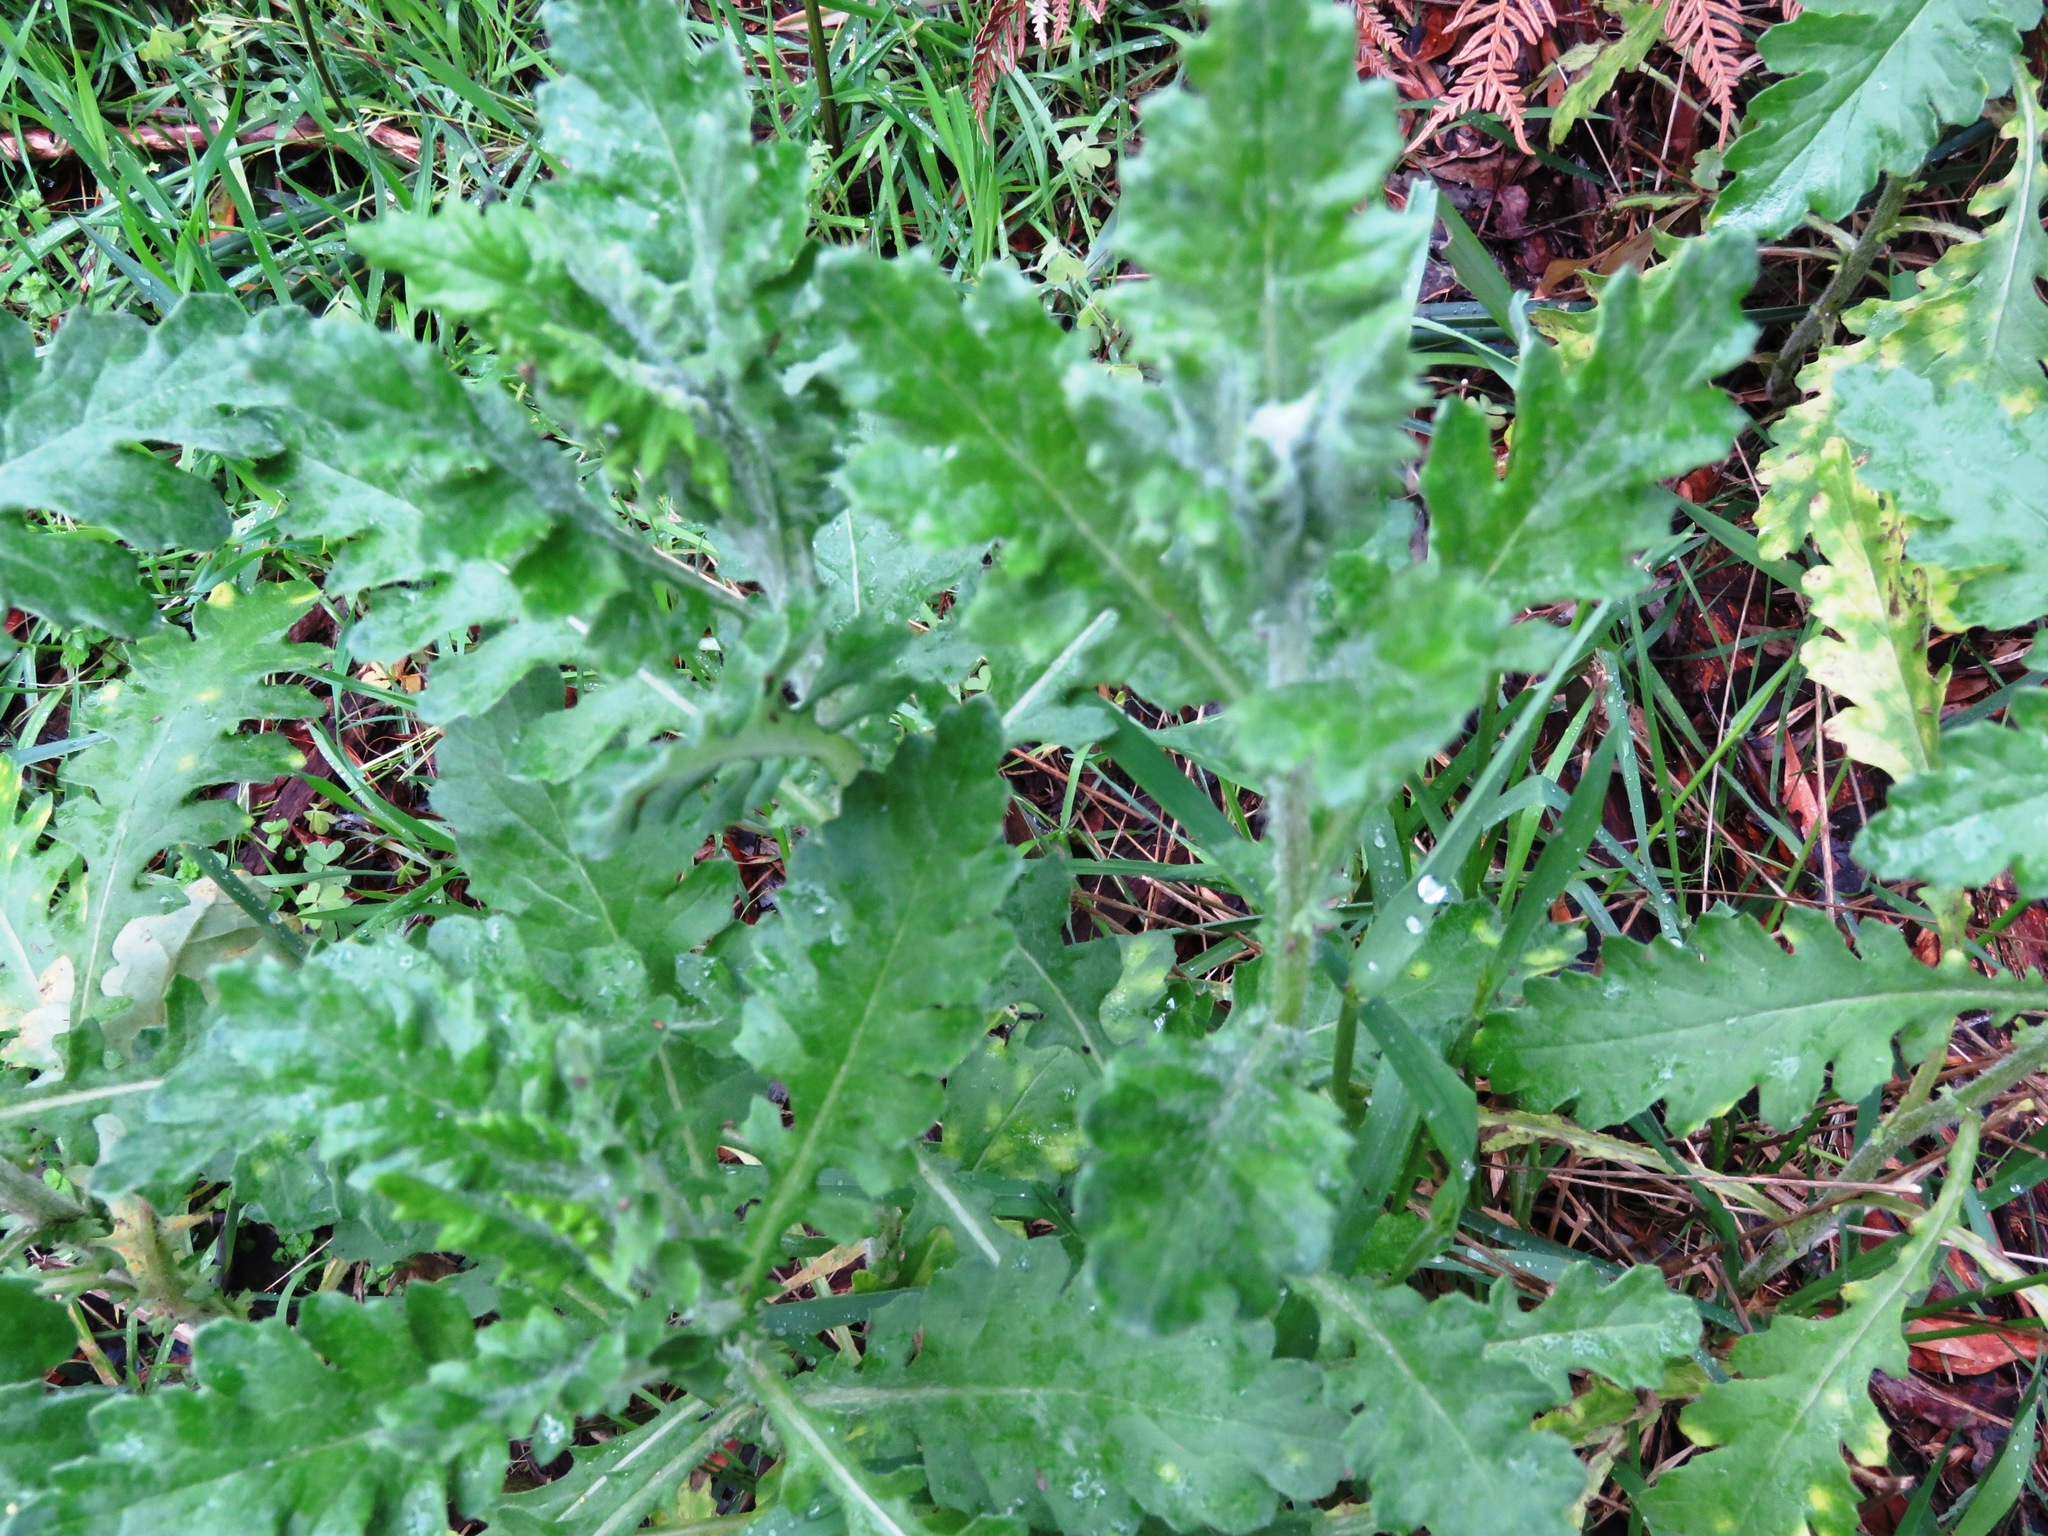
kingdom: Plantae
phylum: Tracheophyta
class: Magnoliopsida
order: Asterales
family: Asteraceae
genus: Senecio
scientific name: Senecio glomeratus
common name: Cutleaf burnweed
